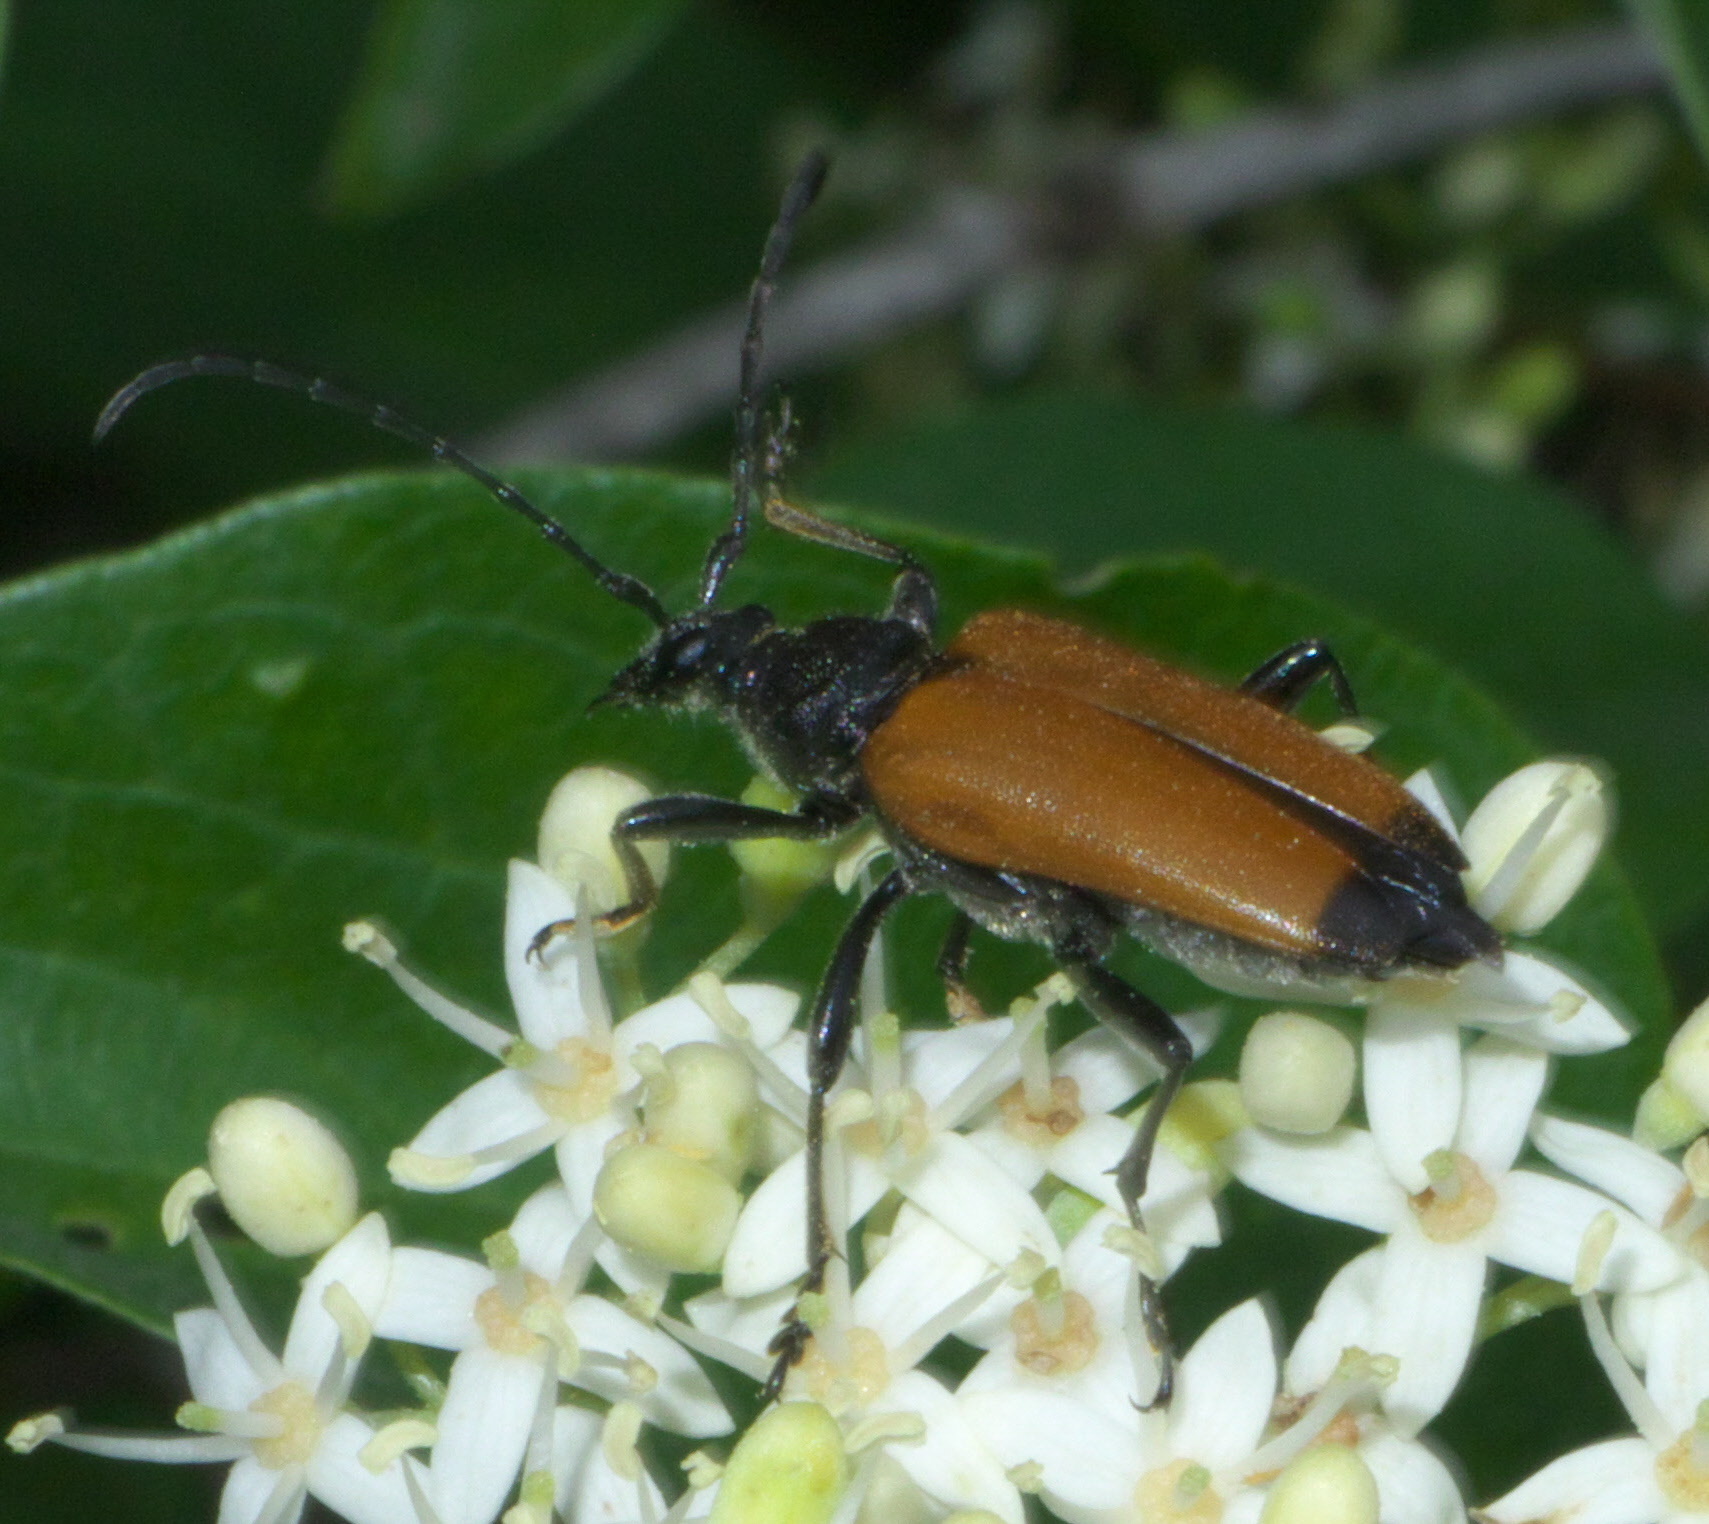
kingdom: Animalia
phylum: Arthropoda
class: Insecta
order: Coleoptera
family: Cerambycidae
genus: Trigonarthris
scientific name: Trigonarthris atrata
